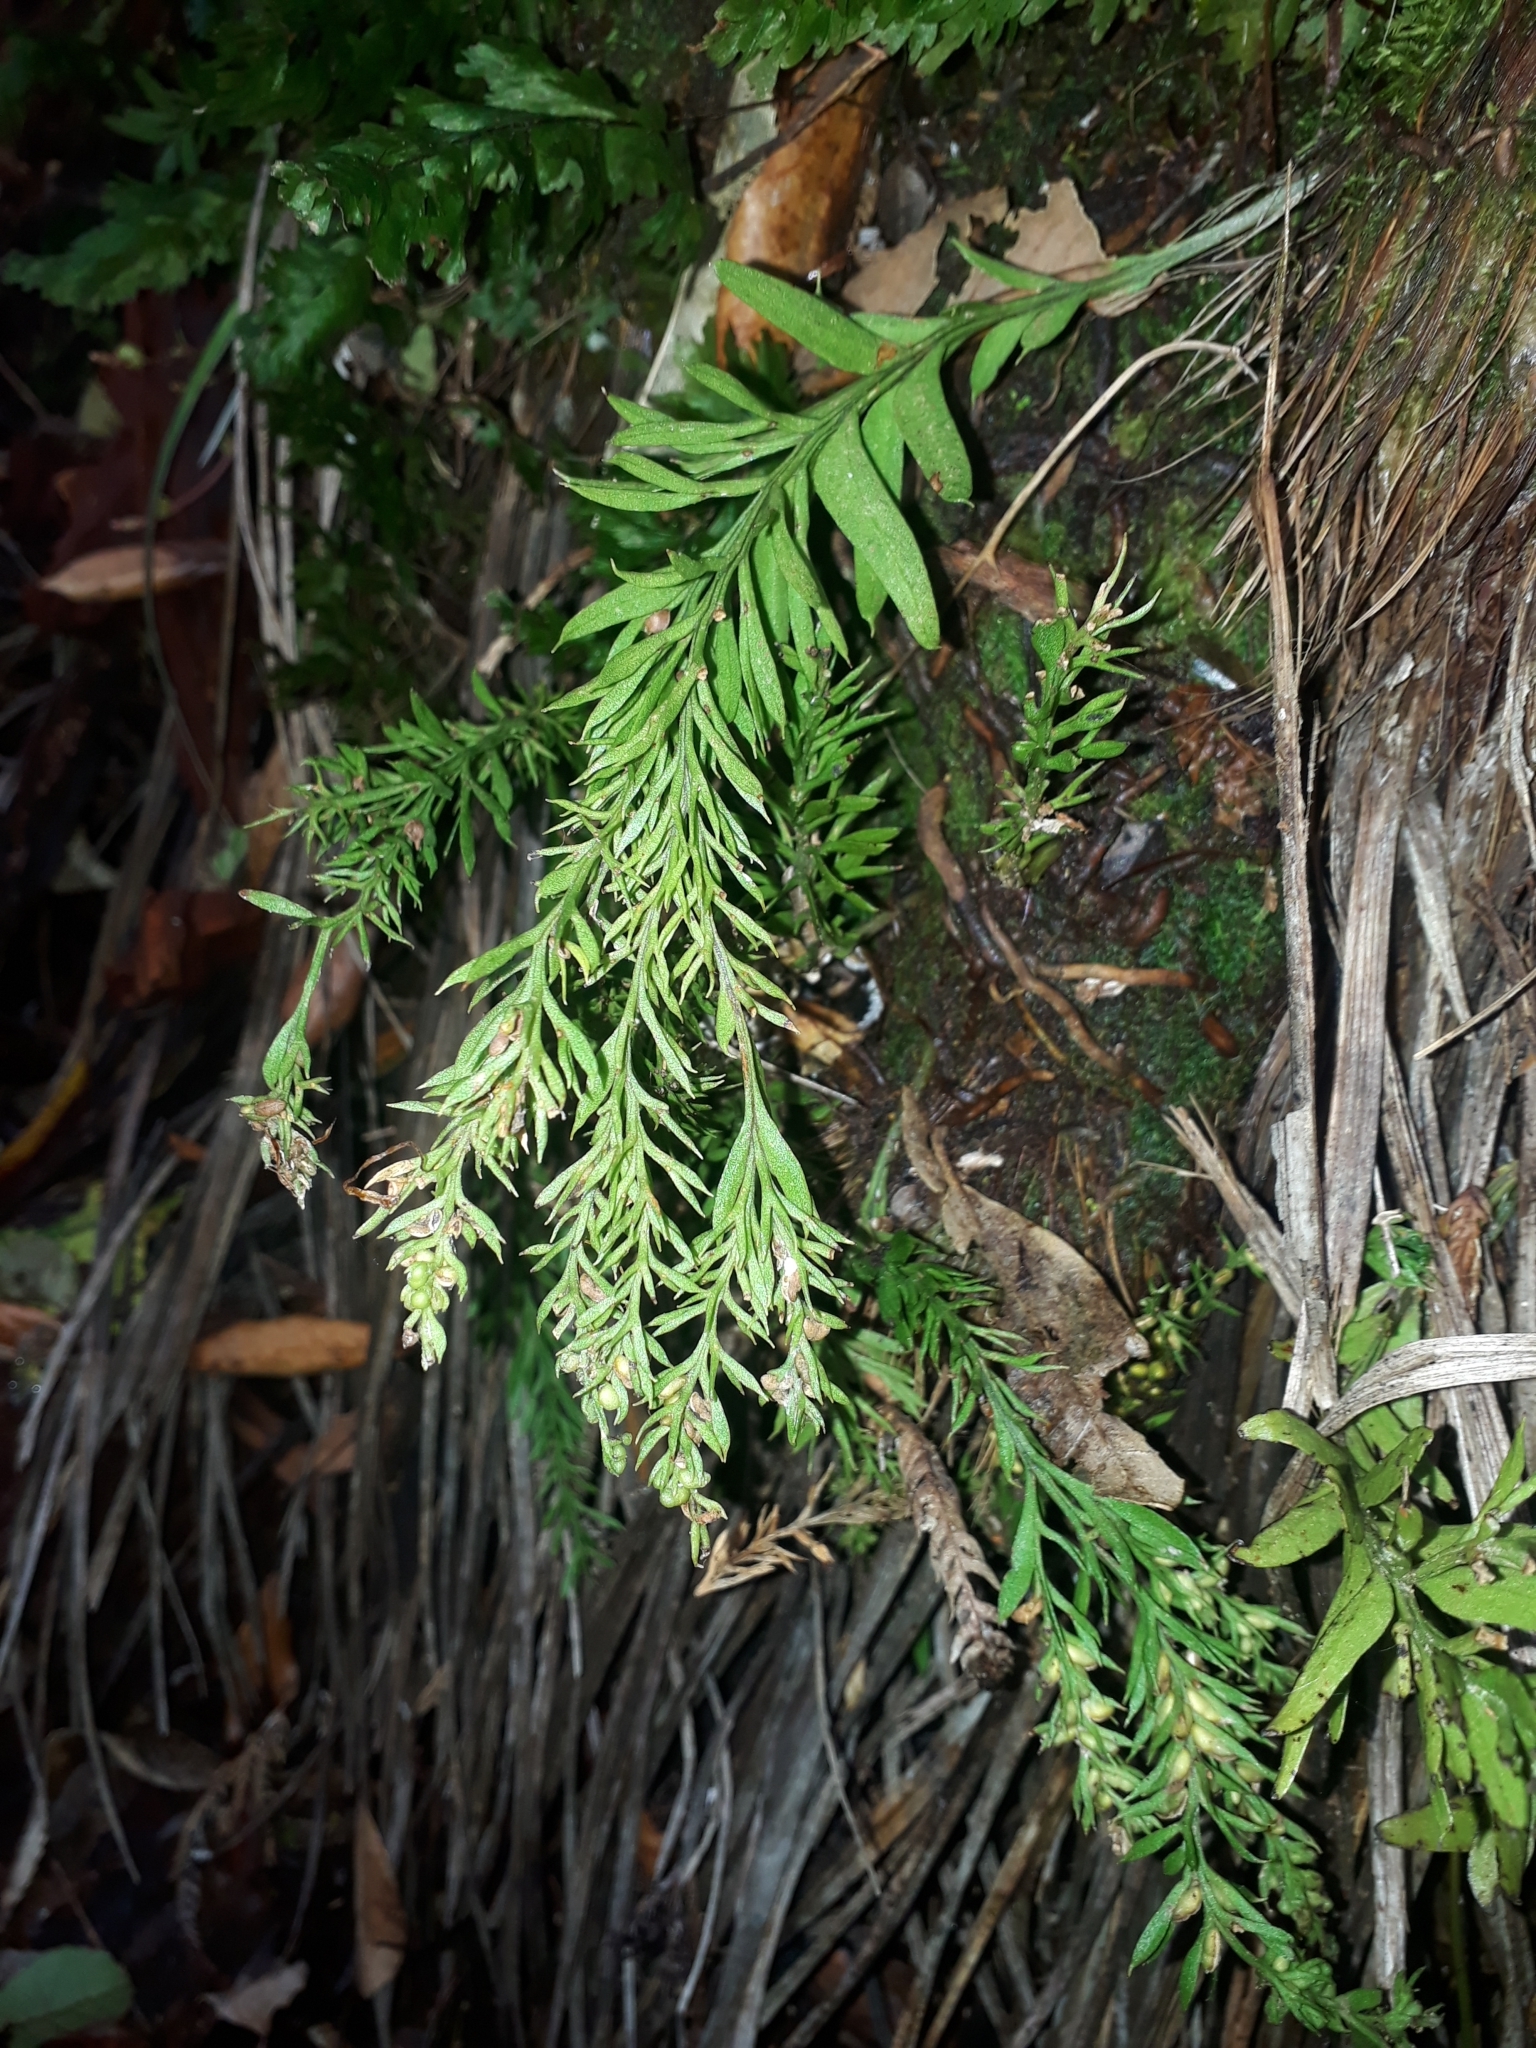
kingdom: Plantae
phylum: Tracheophyta
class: Polypodiopsida
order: Psilotales
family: Psilotaceae
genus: Tmesipteris
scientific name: Tmesipteris elongata
